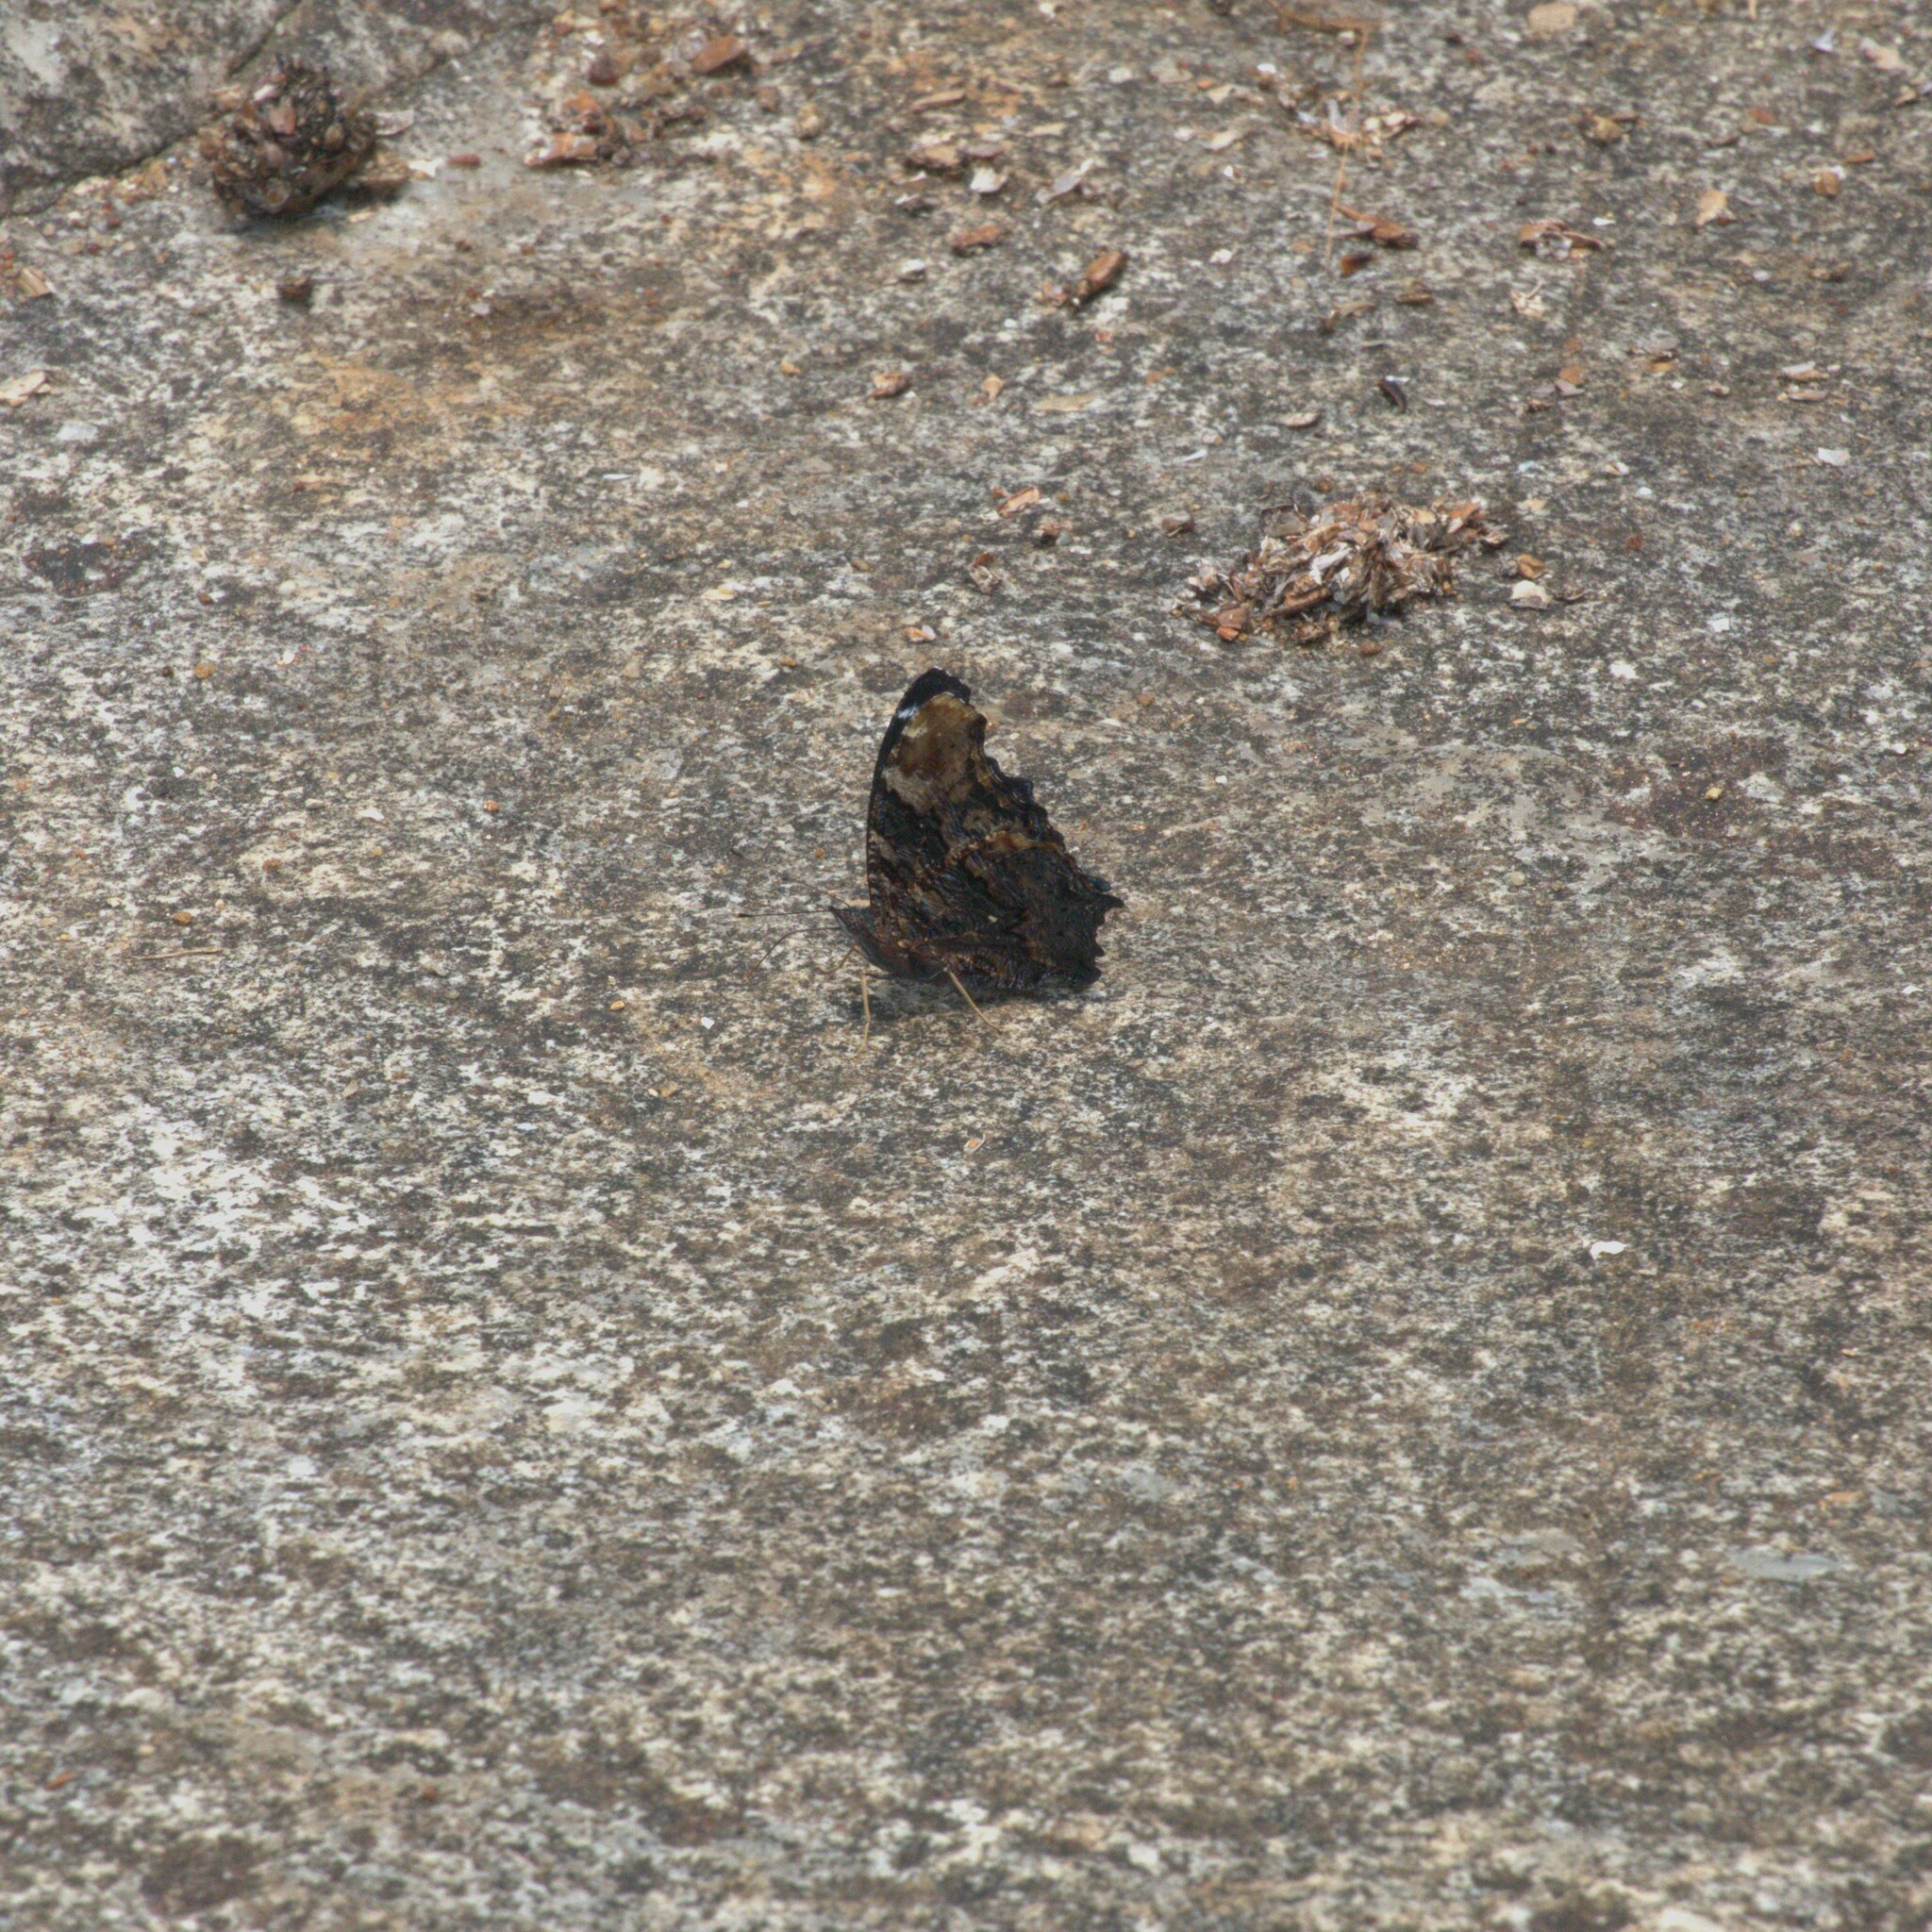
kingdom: Animalia
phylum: Arthropoda
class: Insecta
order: Lepidoptera
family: Nymphalidae
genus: Vanessa
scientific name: Vanessa Kaniska canace
